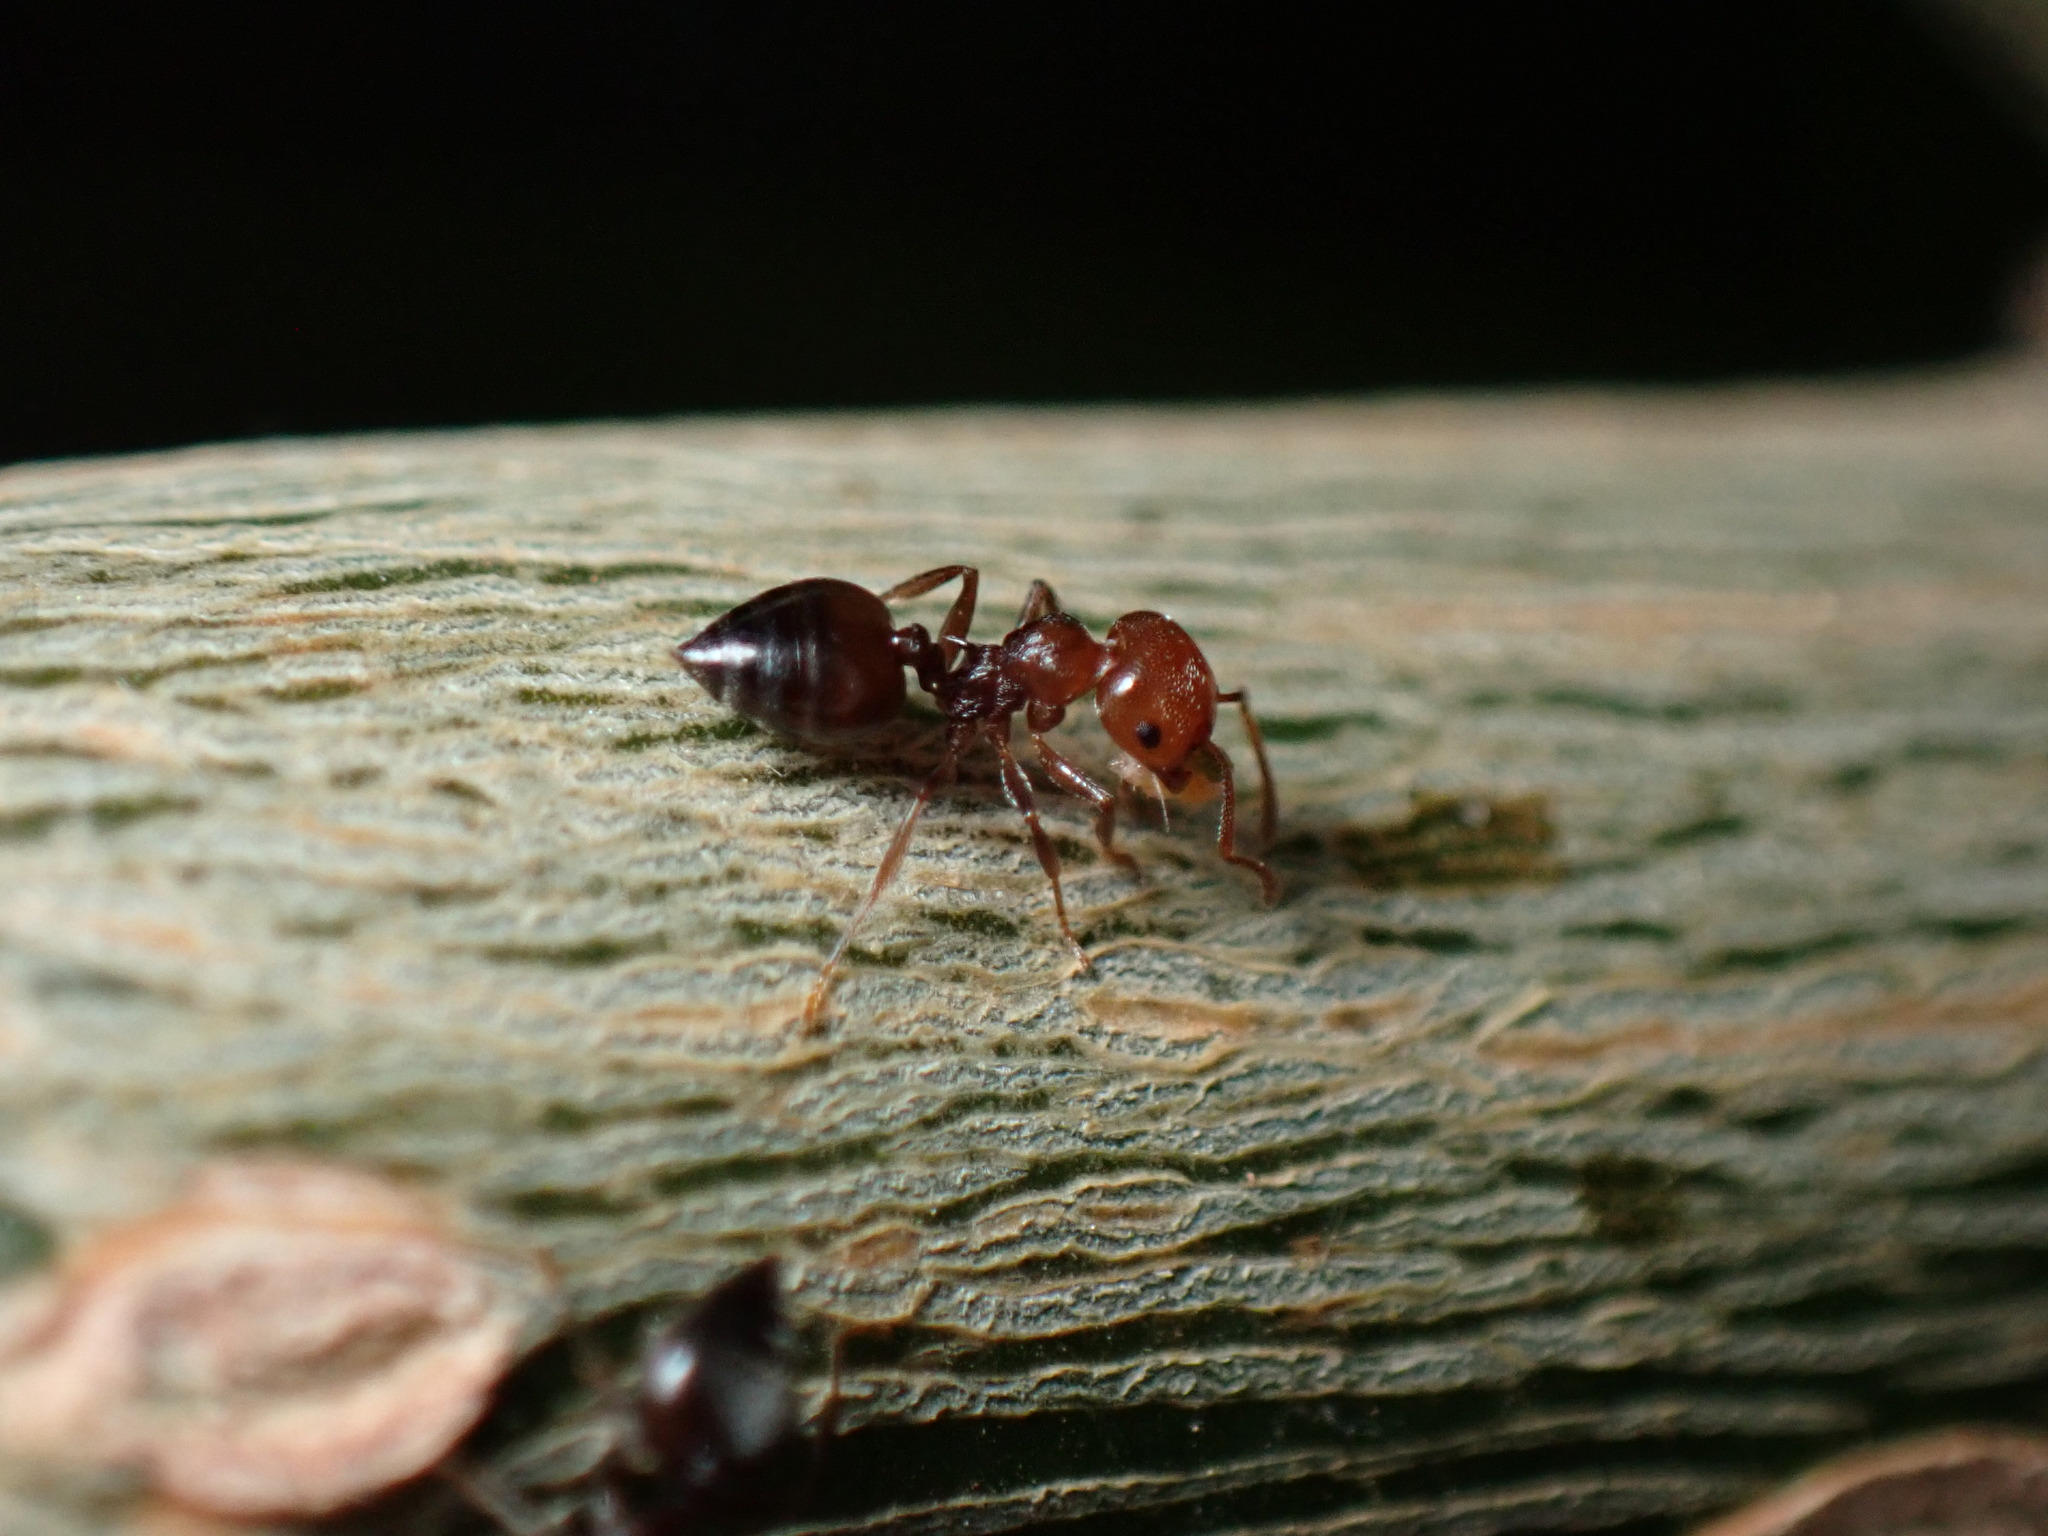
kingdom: Animalia
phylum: Arthropoda
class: Insecta
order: Hymenoptera
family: Formicidae
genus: Crematogaster
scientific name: Crematogaster scutellaris
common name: Fourmi du liège
